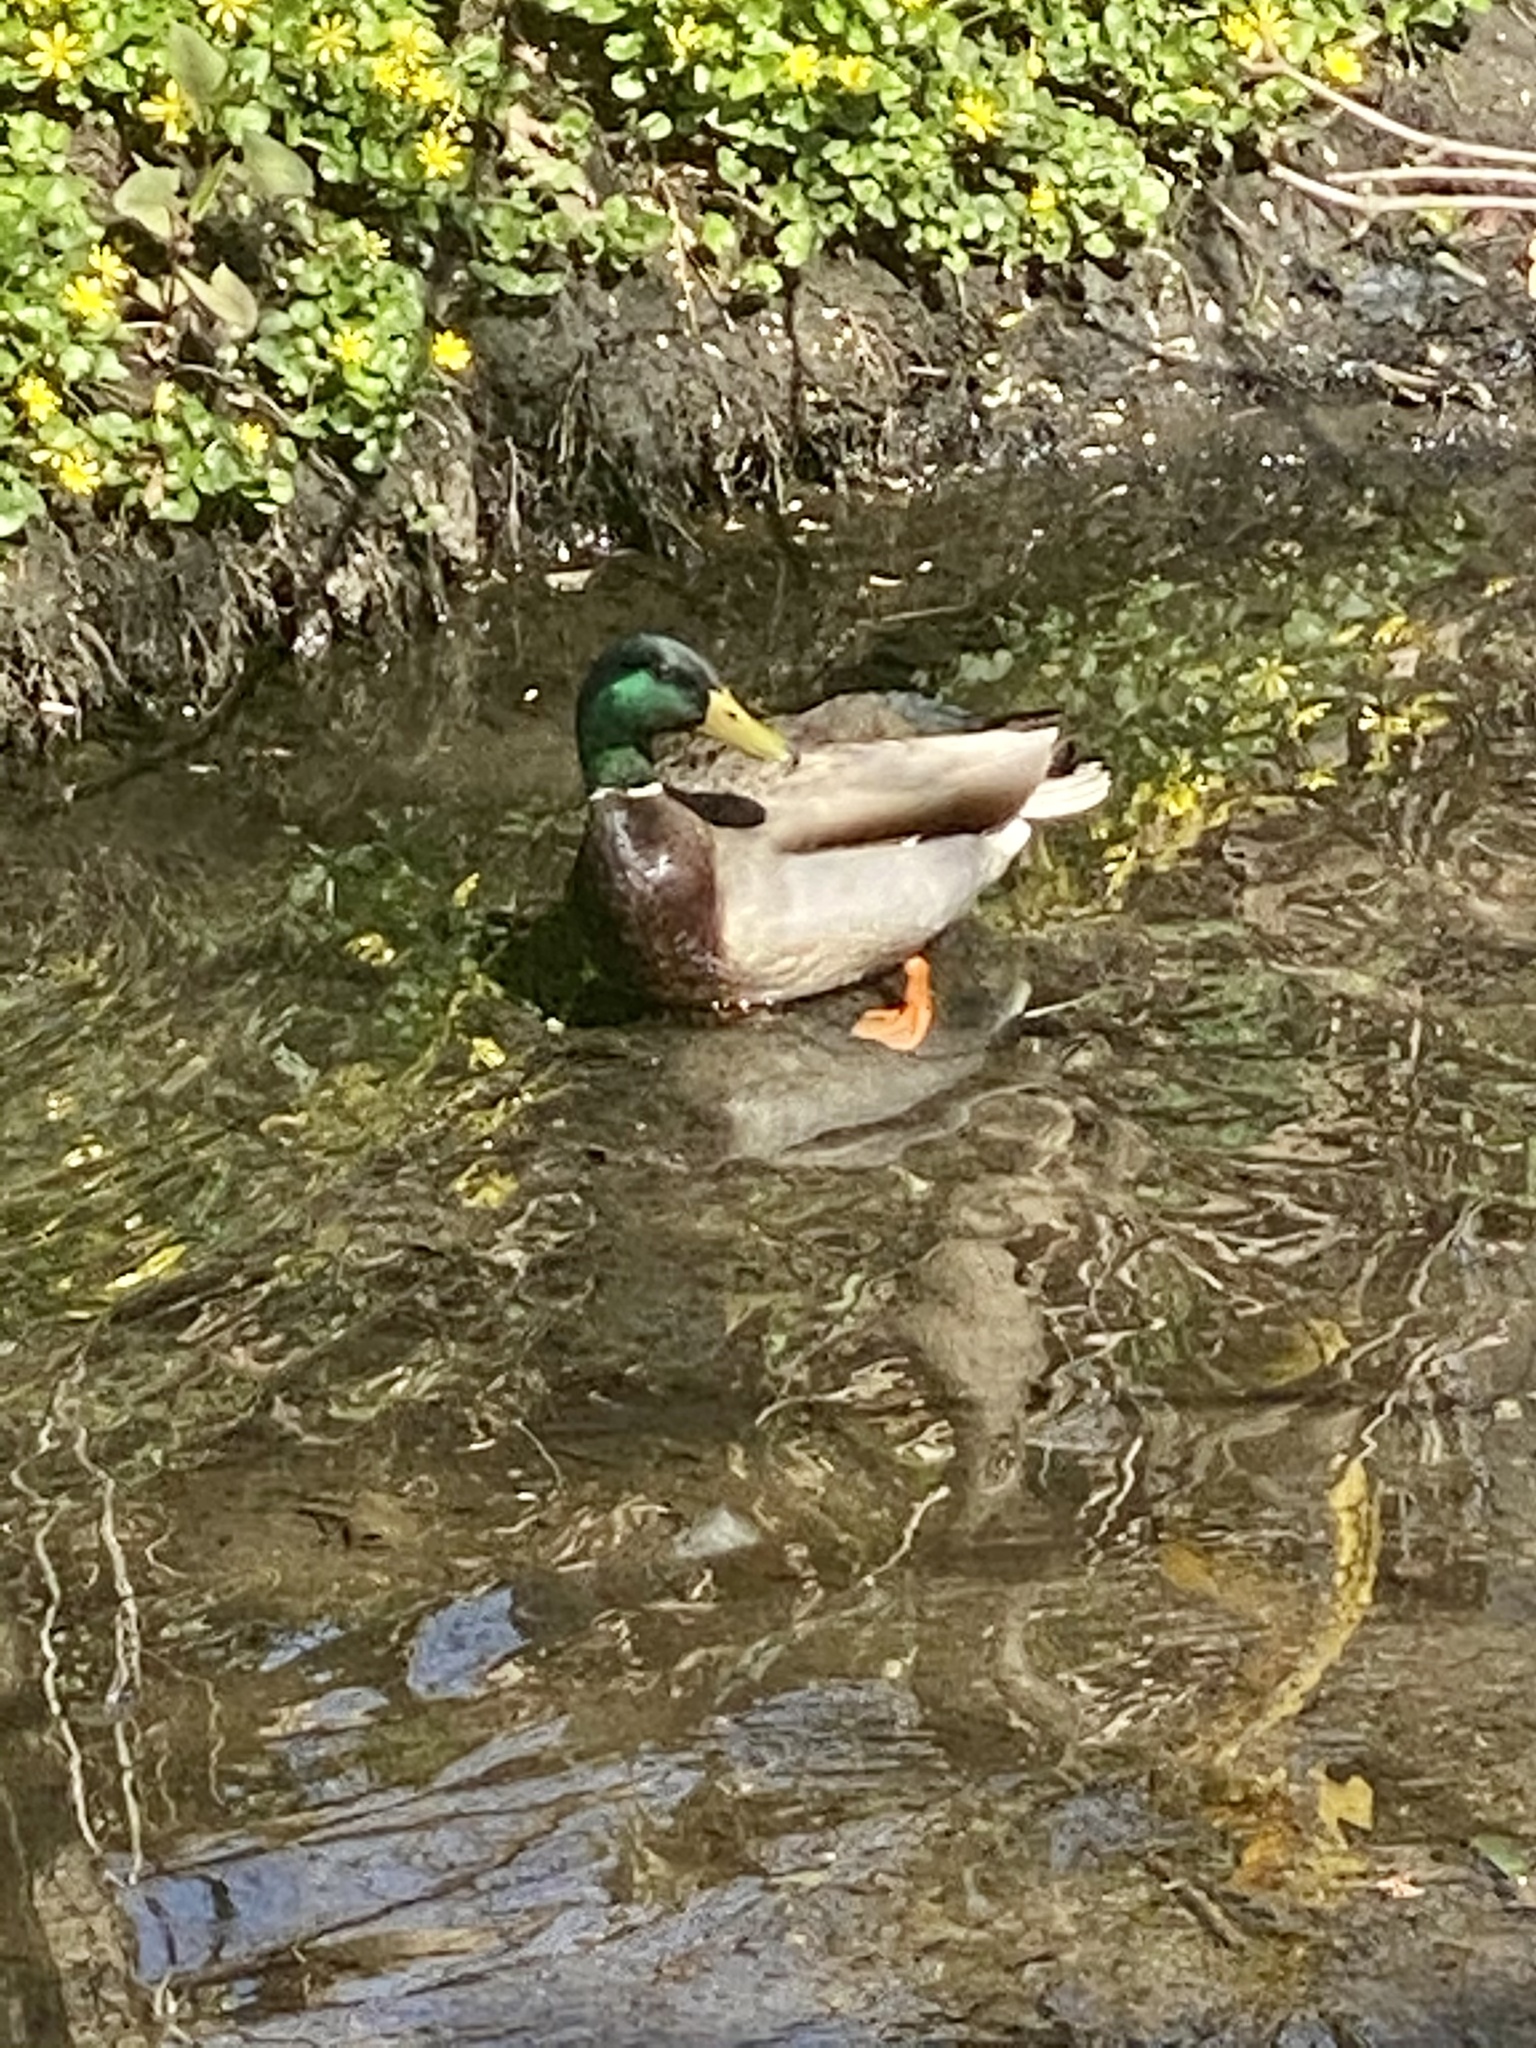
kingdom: Animalia
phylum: Chordata
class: Aves
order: Anseriformes
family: Anatidae
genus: Anas
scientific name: Anas platyrhynchos
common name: Mallard
